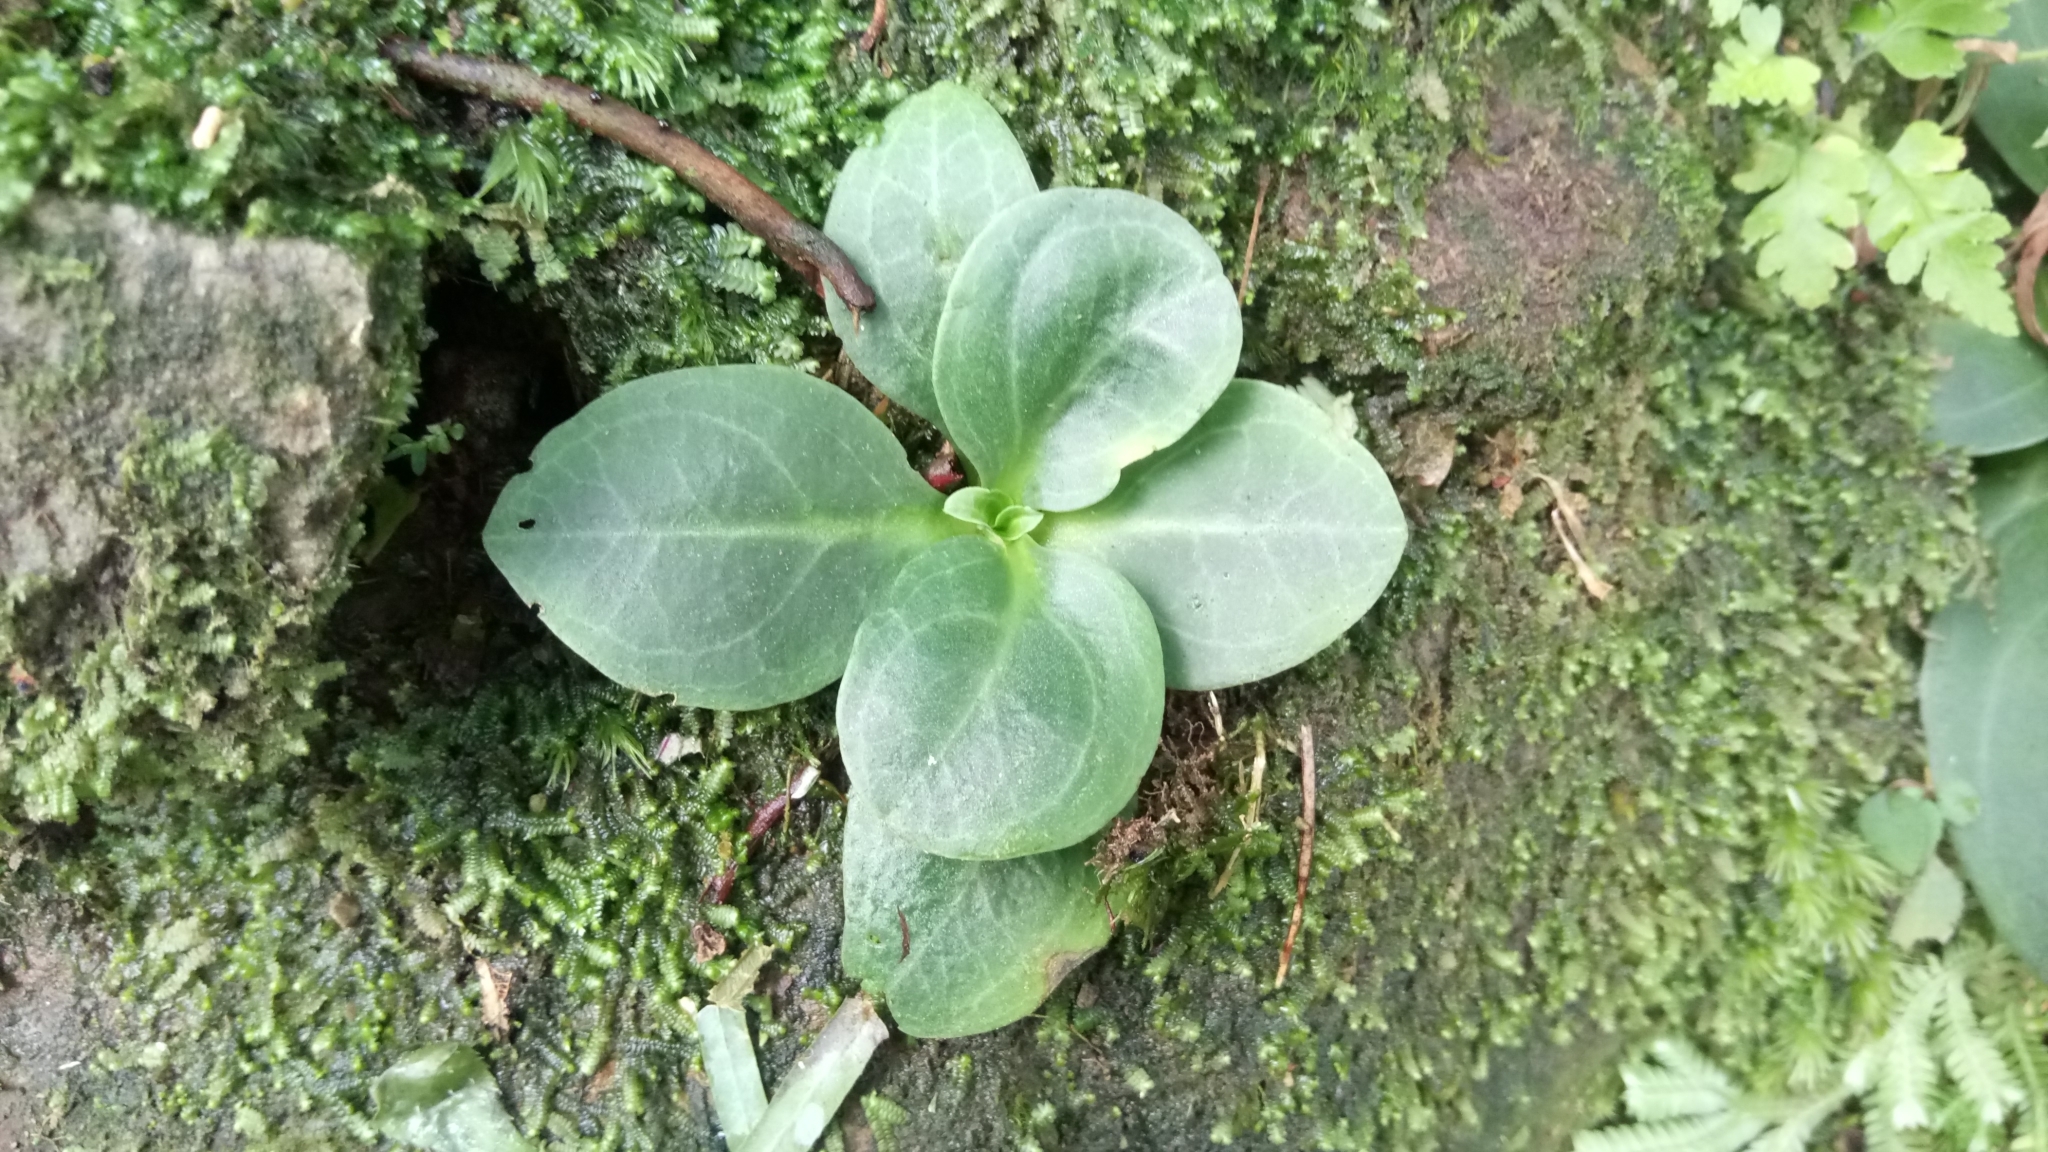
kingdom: Plantae
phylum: Tracheophyta
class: Magnoliopsida
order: Gentianales
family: Gentianaceae
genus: Swertia
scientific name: Swertia shintenensis
